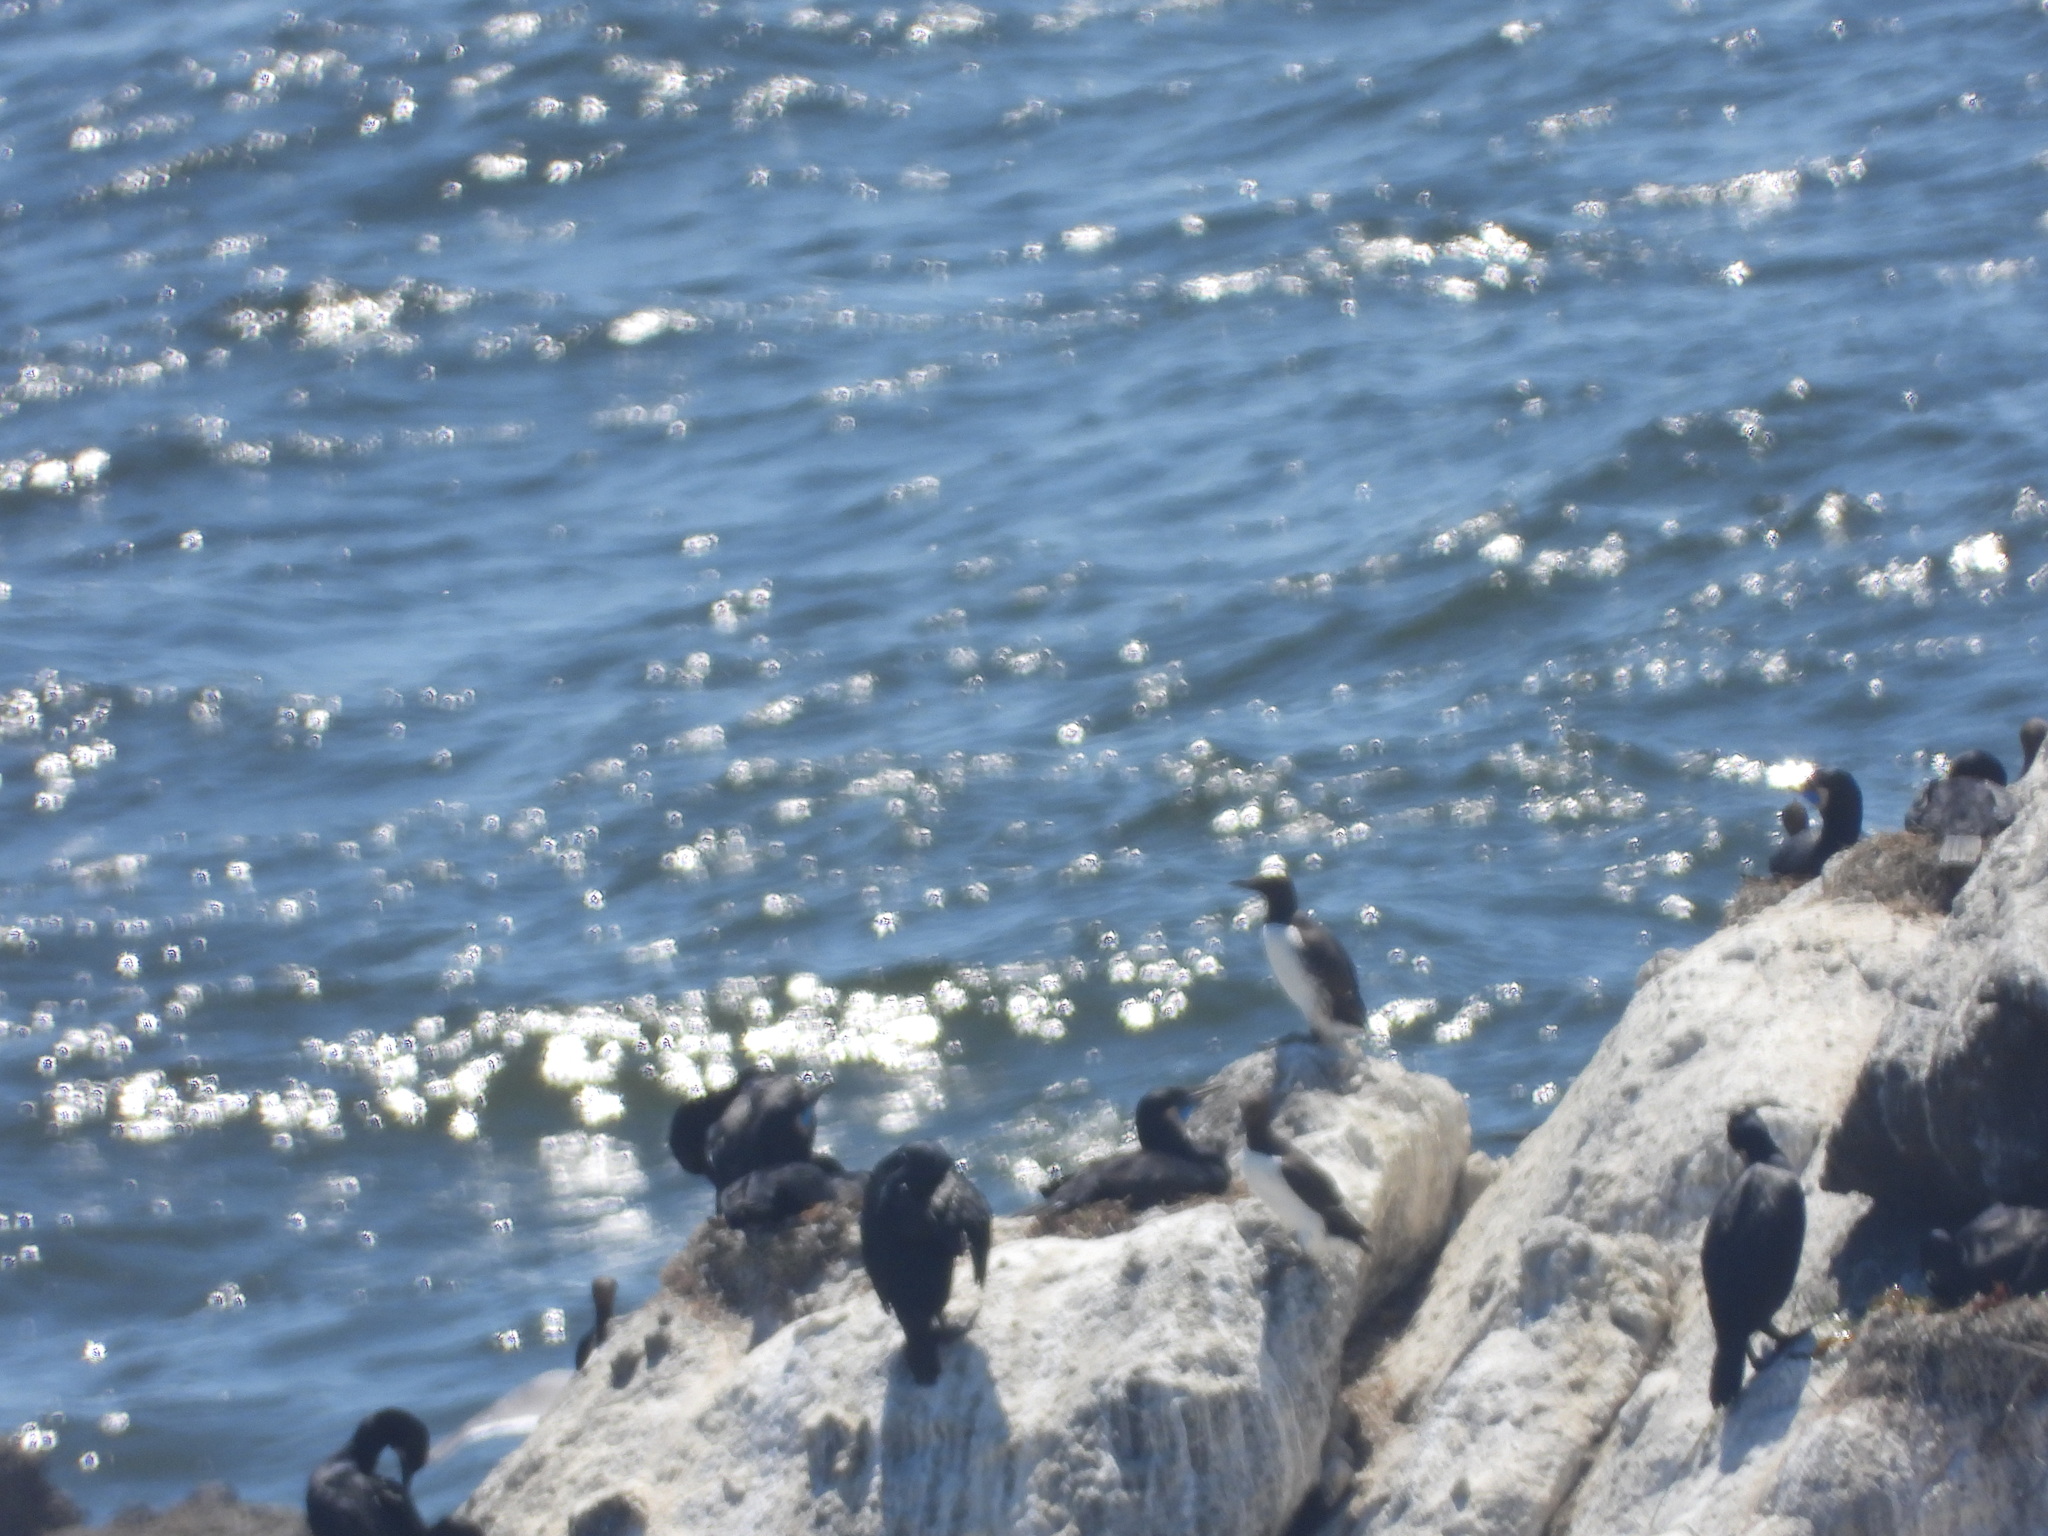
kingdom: Animalia
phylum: Chordata
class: Aves
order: Suliformes
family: Phalacrocoracidae
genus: Urile
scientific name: Urile penicillatus
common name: Brandt's cormorant
